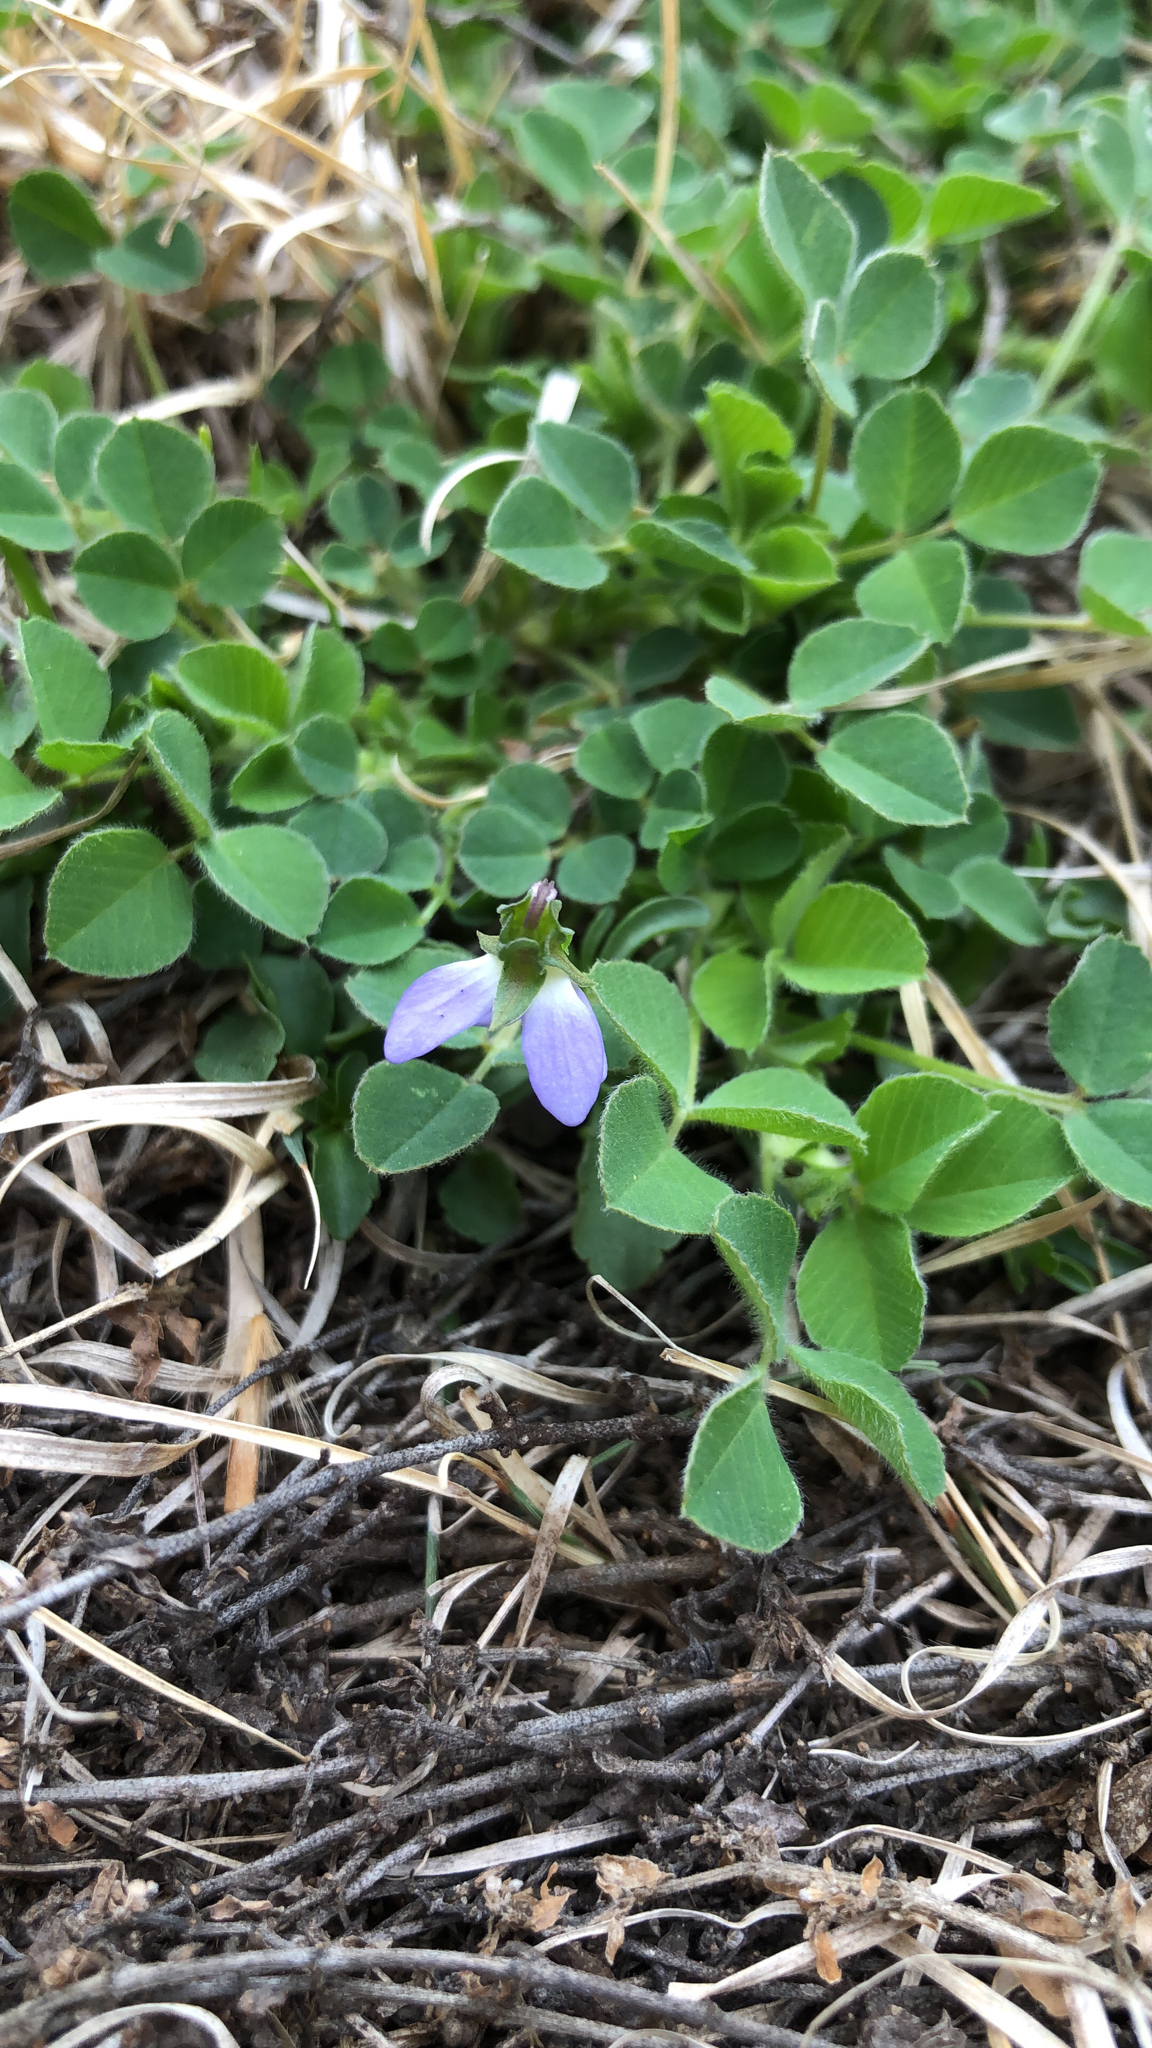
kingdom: Plantae
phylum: Tracheophyta
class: Magnoliopsida
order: Malpighiales
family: Violaceae
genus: Viola
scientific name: Viola rafinesquei
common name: American field pansy
